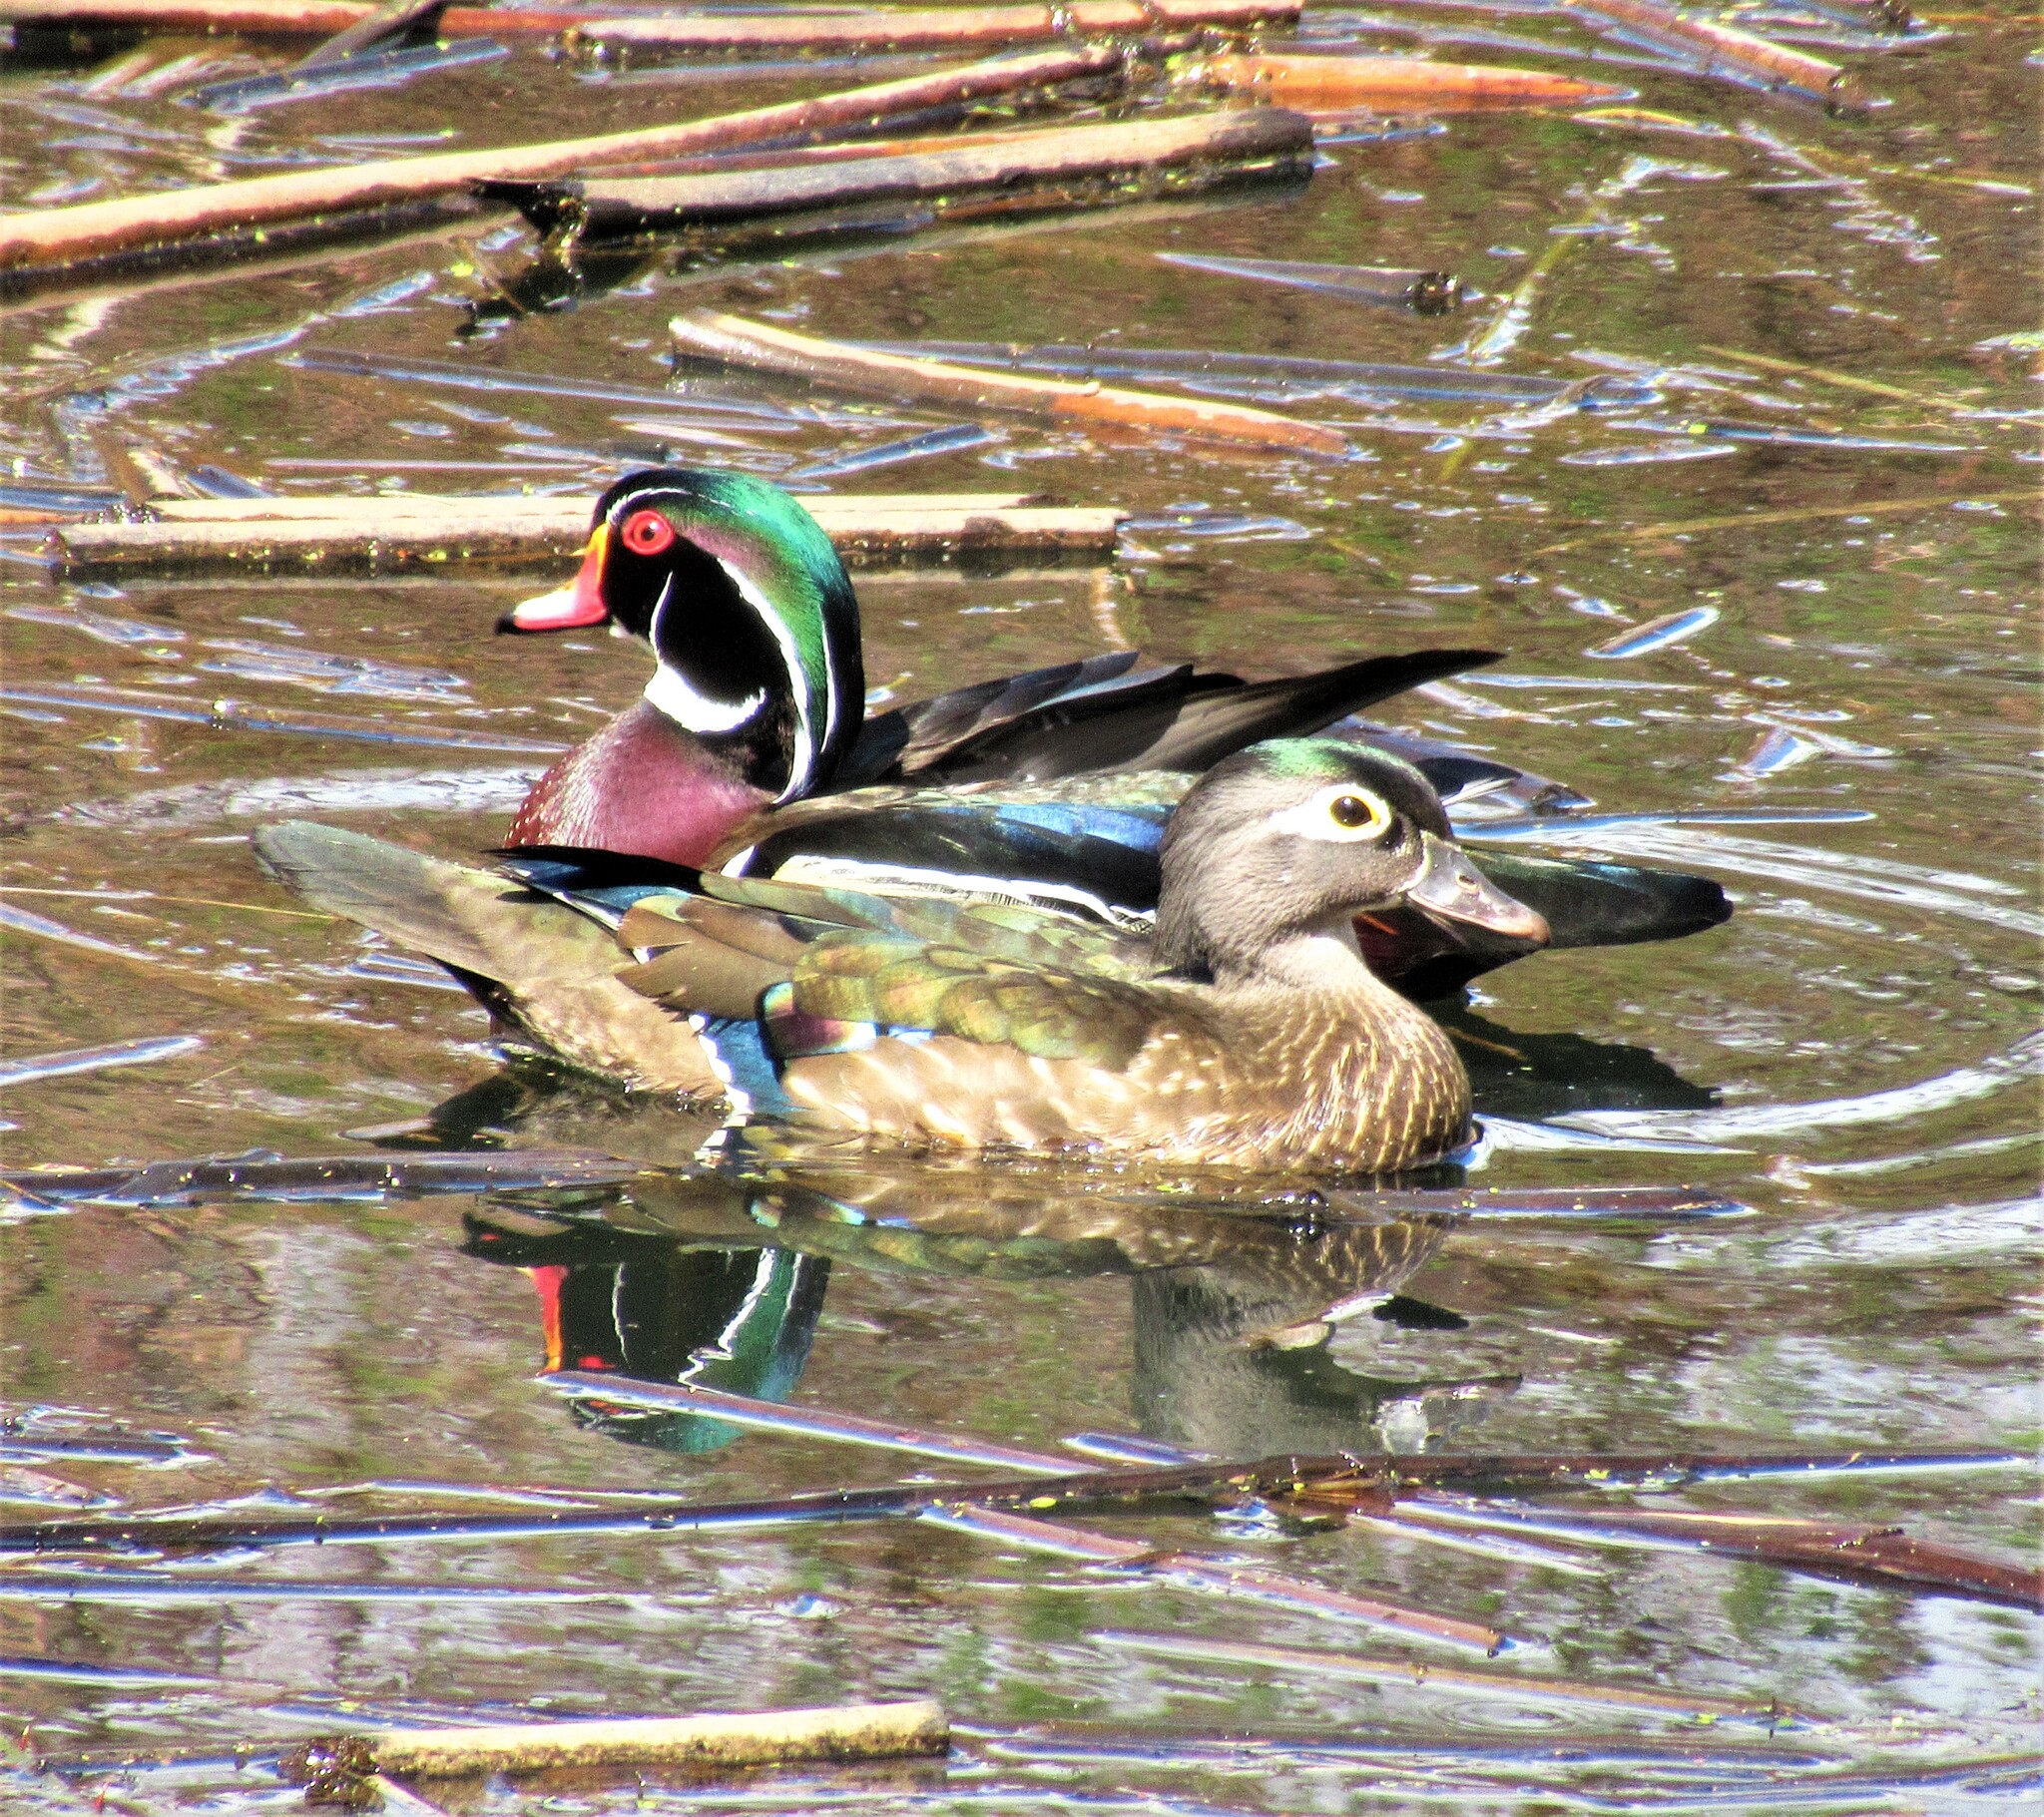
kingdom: Animalia
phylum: Chordata
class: Aves
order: Anseriformes
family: Anatidae
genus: Aix
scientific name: Aix sponsa
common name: Wood duck
